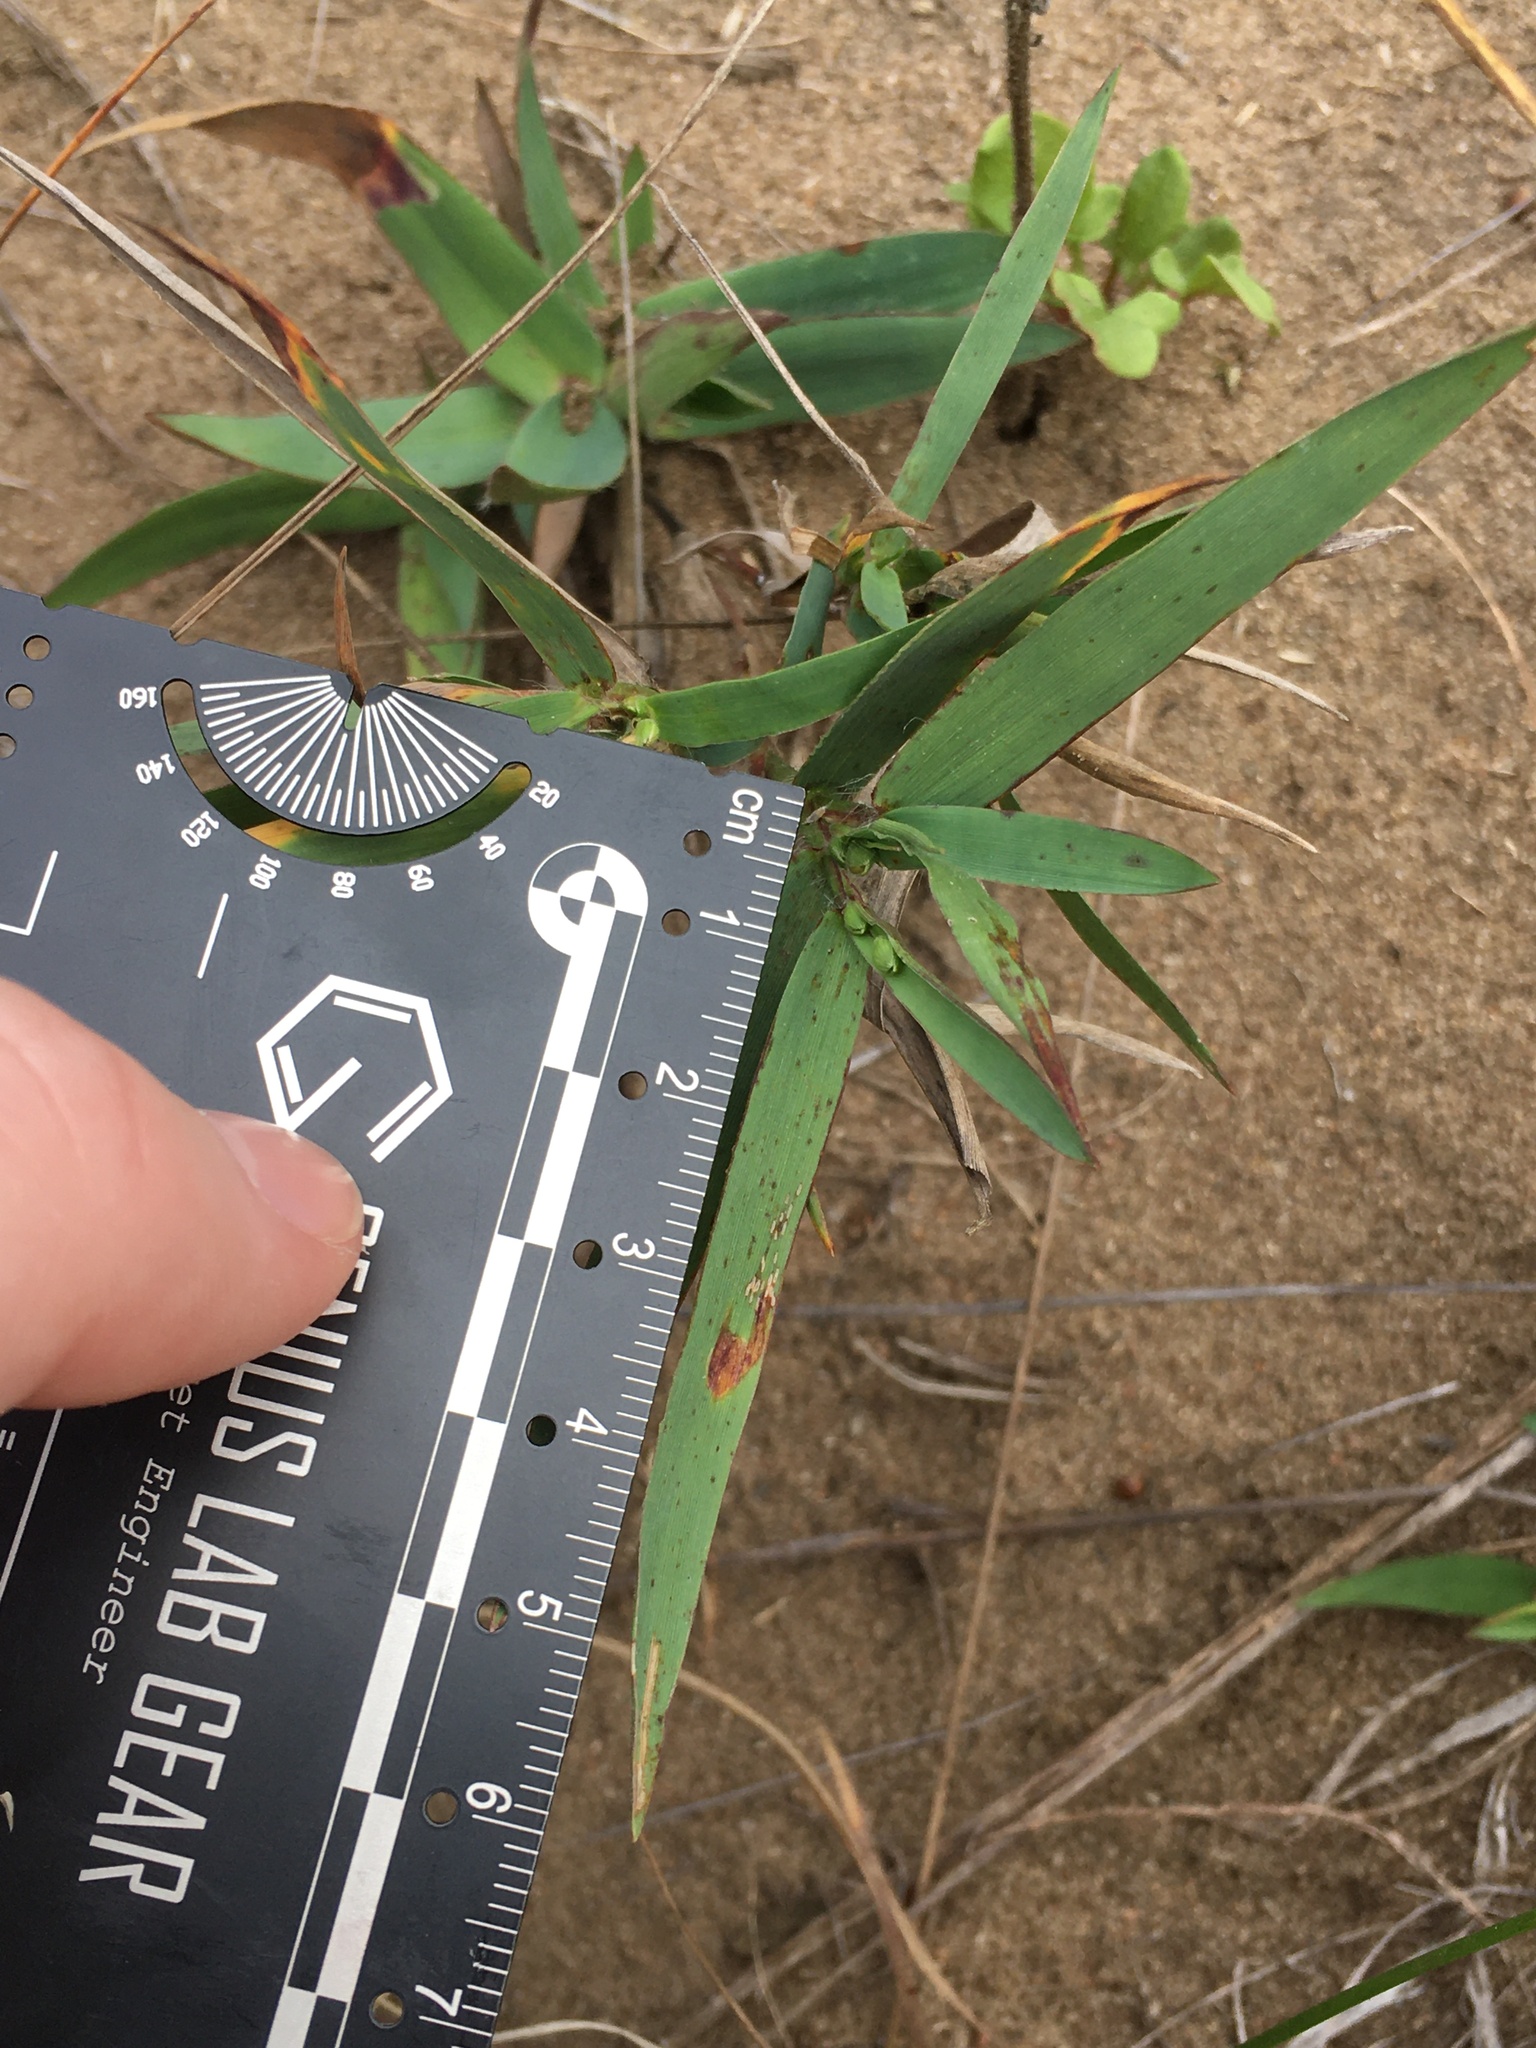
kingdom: Plantae
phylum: Tracheophyta
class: Liliopsida
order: Poales
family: Poaceae
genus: Dichanthelium
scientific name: Dichanthelium oligosanthes
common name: Few-anther obscuregrass
